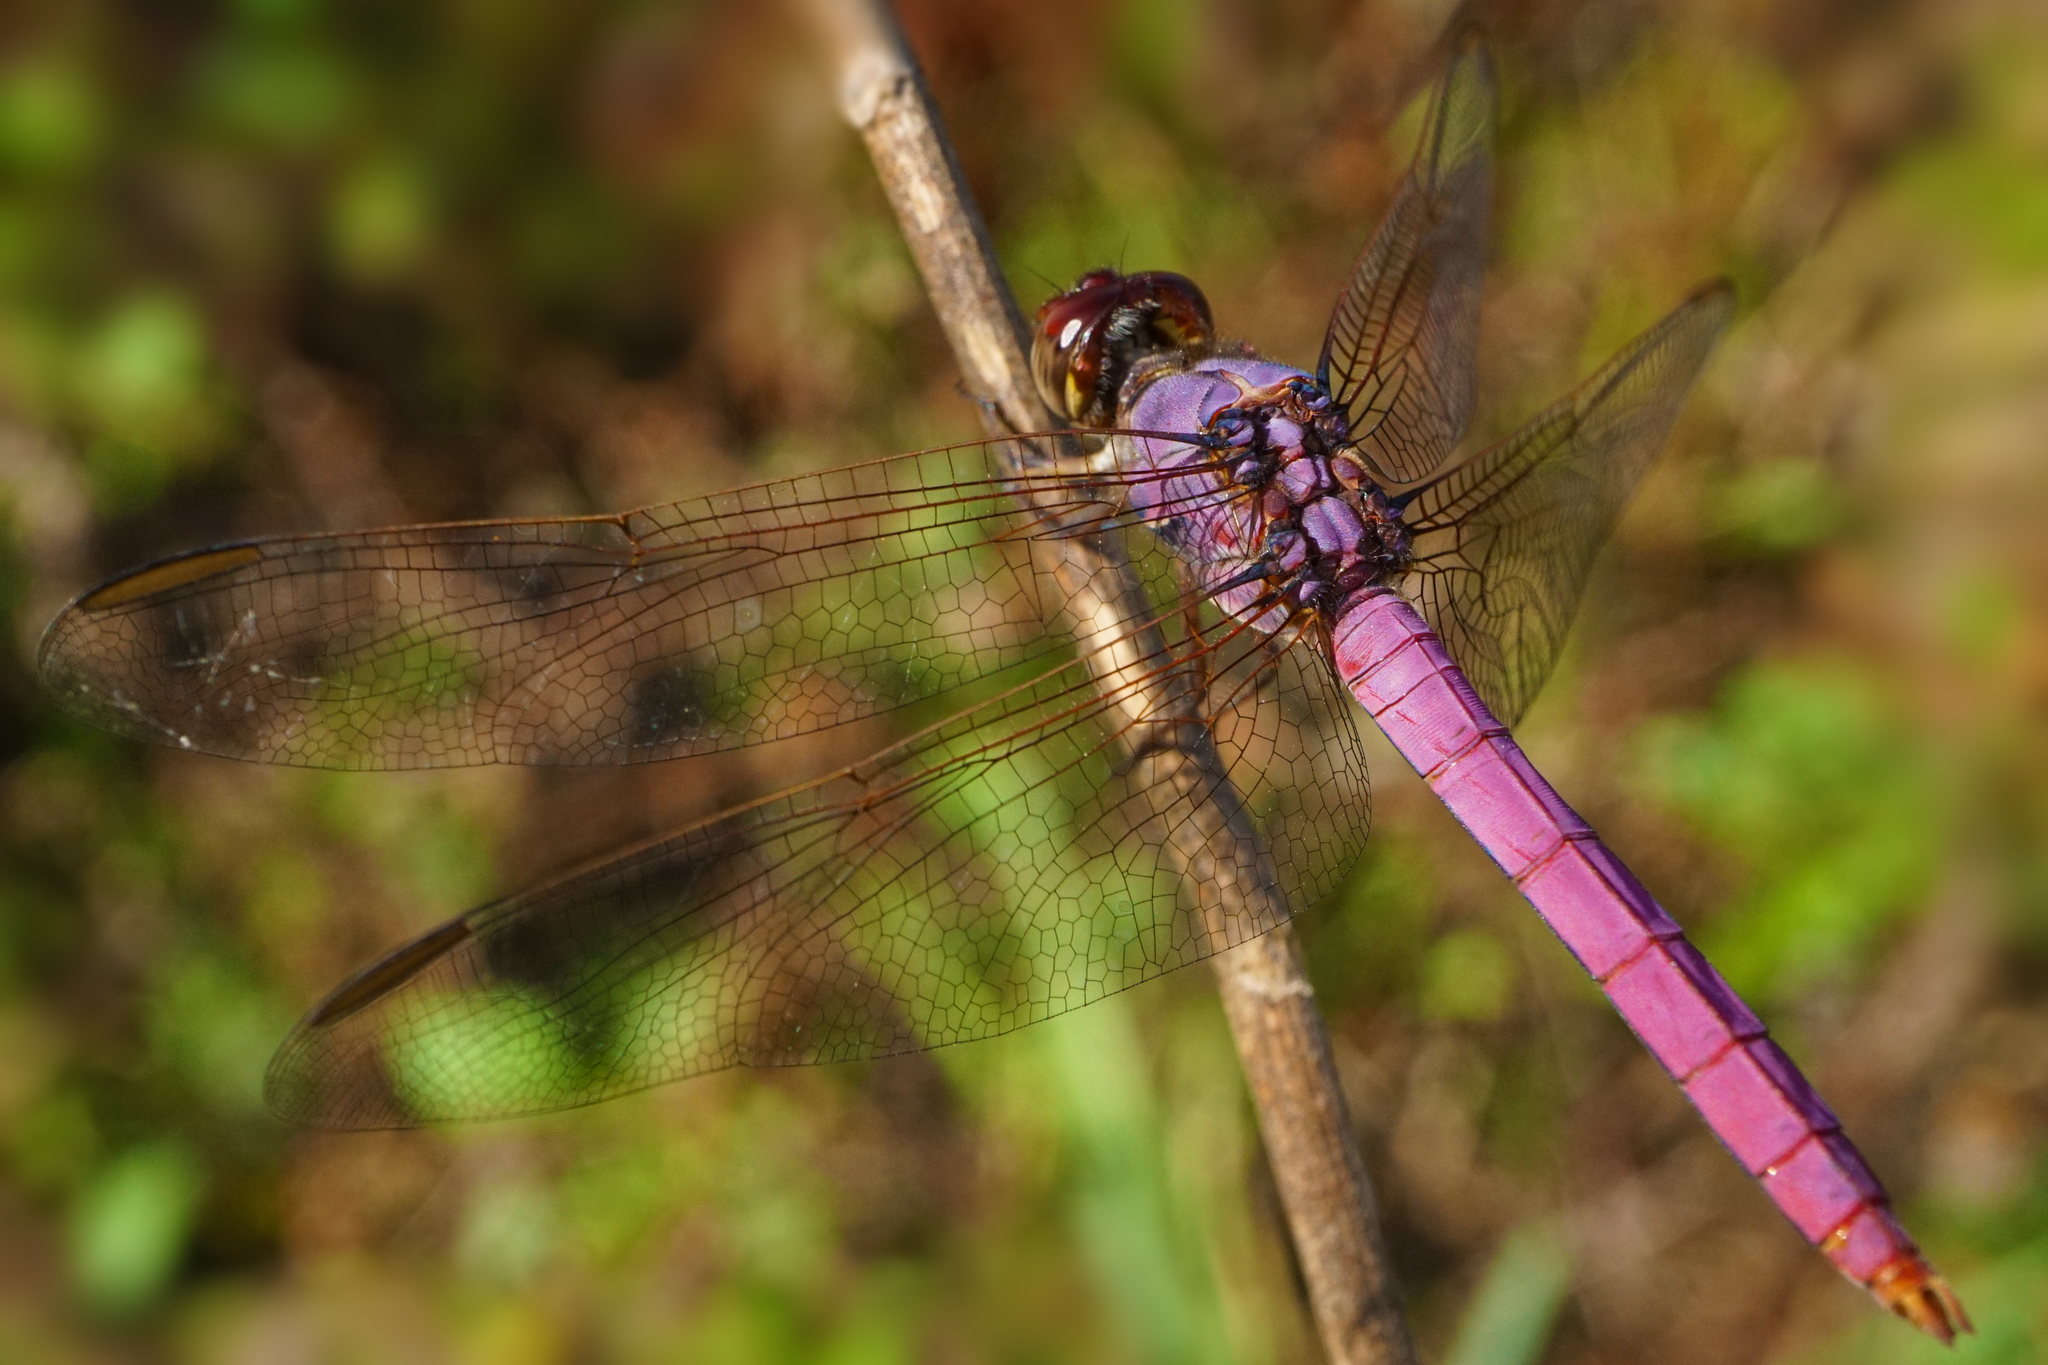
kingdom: Animalia
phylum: Arthropoda
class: Insecta
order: Odonata
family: Libellulidae
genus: Orthemis
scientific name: Orthemis ferruginea
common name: Roseate skimmer
